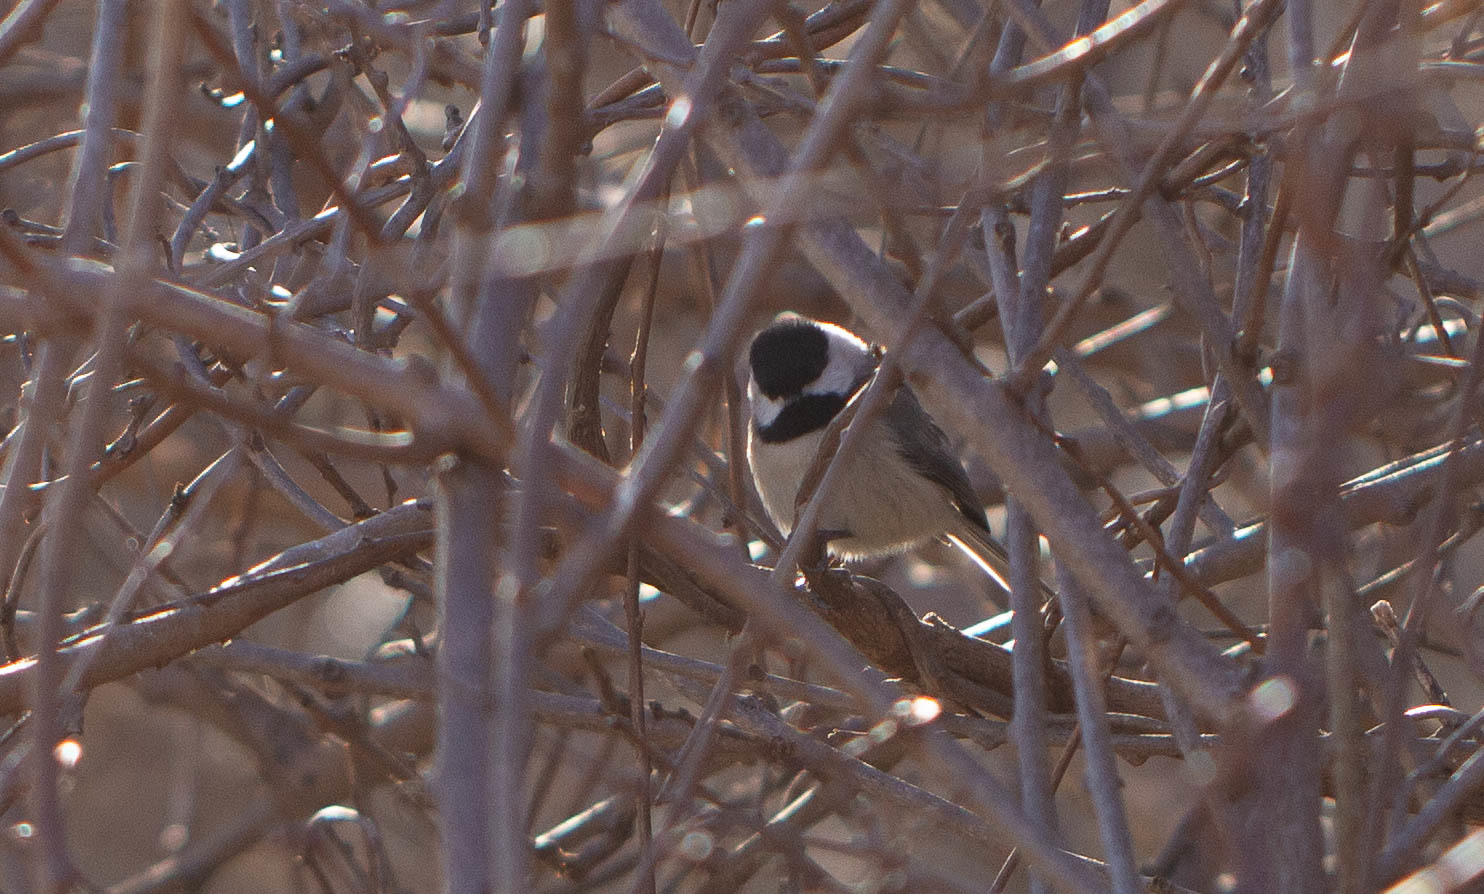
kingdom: Animalia
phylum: Chordata
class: Aves
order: Passeriformes
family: Paridae
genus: Poecile
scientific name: Poecile carolinensis
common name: Carolina chickadee
